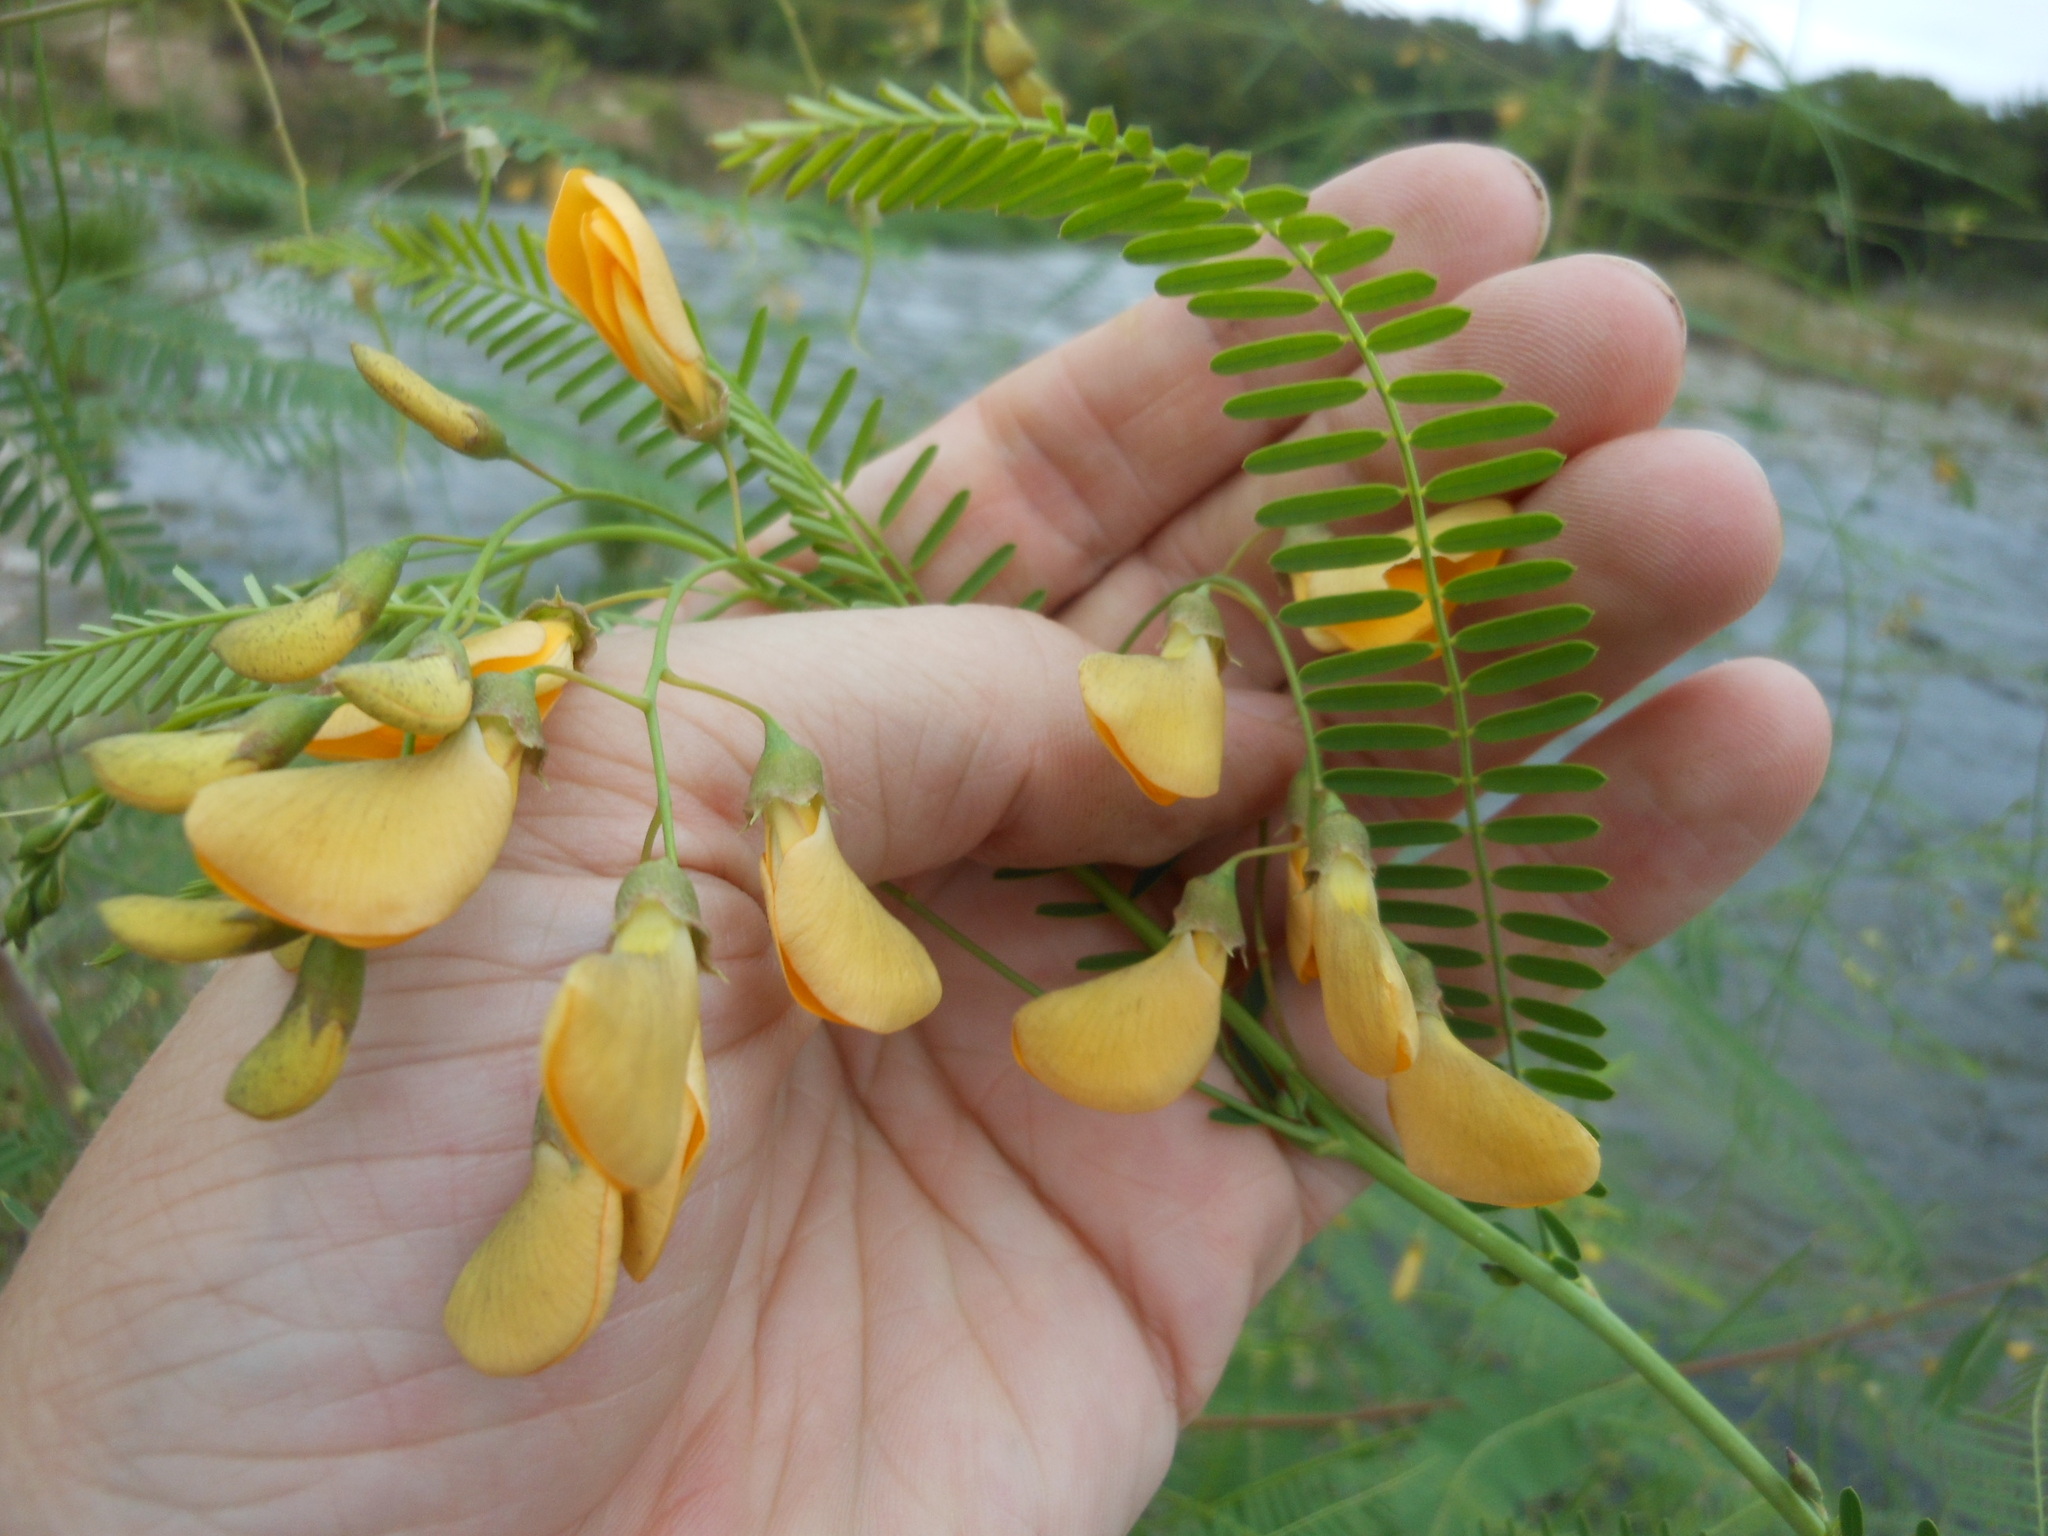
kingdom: Plantae
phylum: Tracheophyta
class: Magnoliopsida
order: Fabales
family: Fabaceae
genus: Sesbania
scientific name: Sesbania herbacea
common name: Bigpod sesbania
